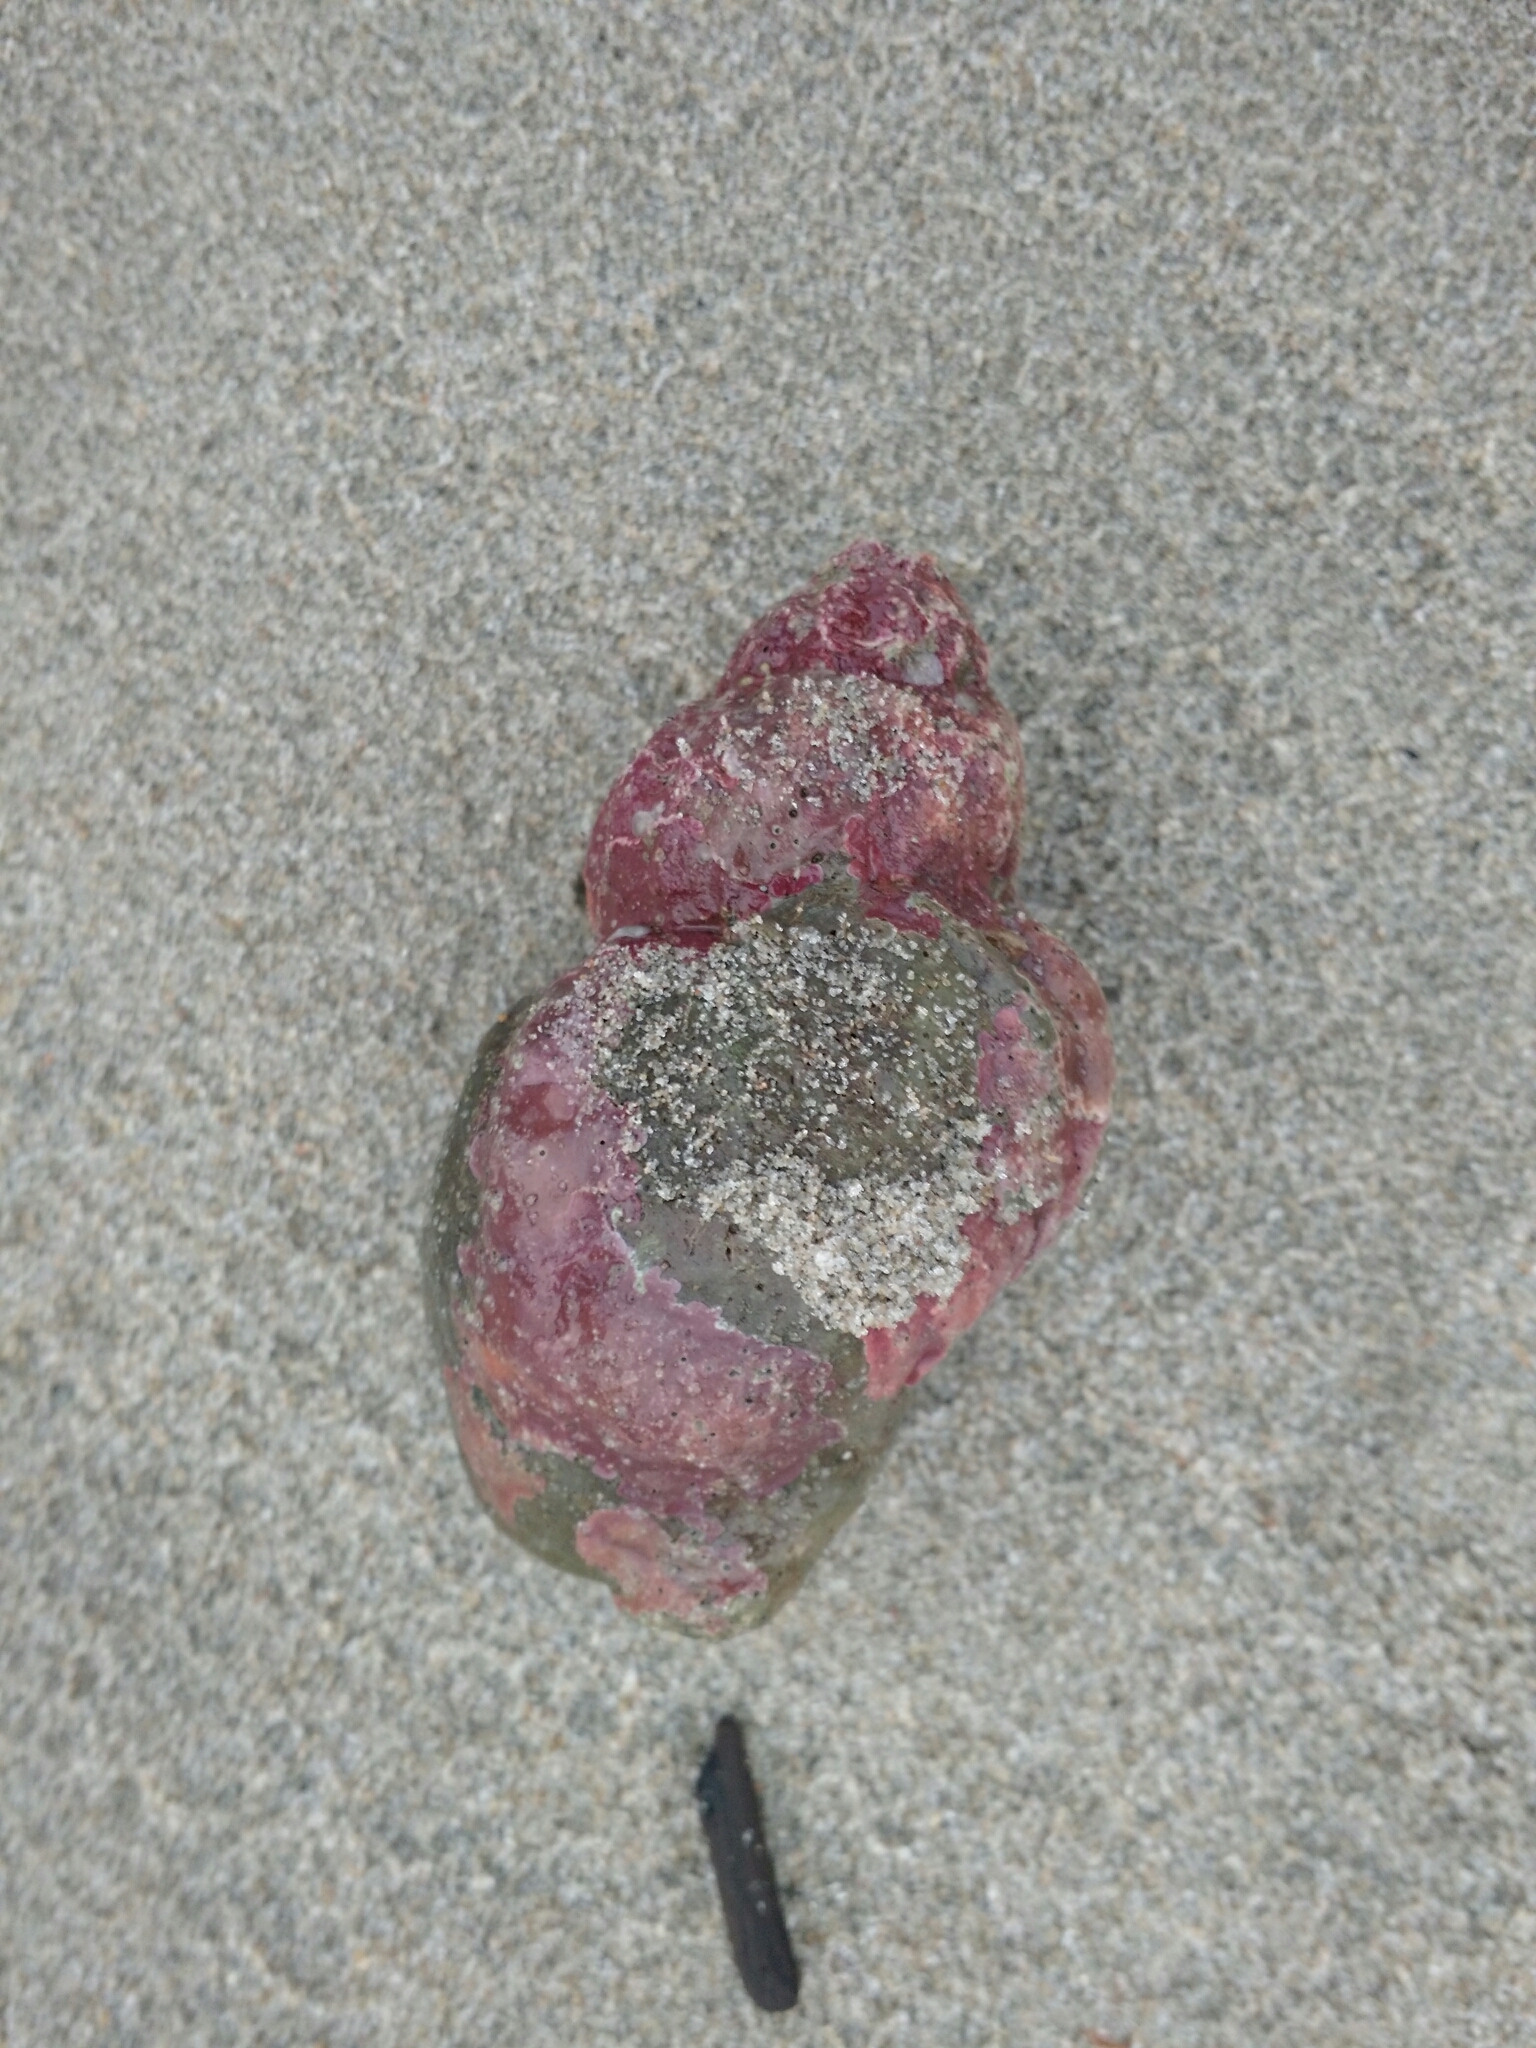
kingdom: Animalia
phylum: Mollusca
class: Gastropoda
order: Neogastropoda
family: Buccinidae
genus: Buccinum
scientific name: Buccinum undatum
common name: Common whelk
